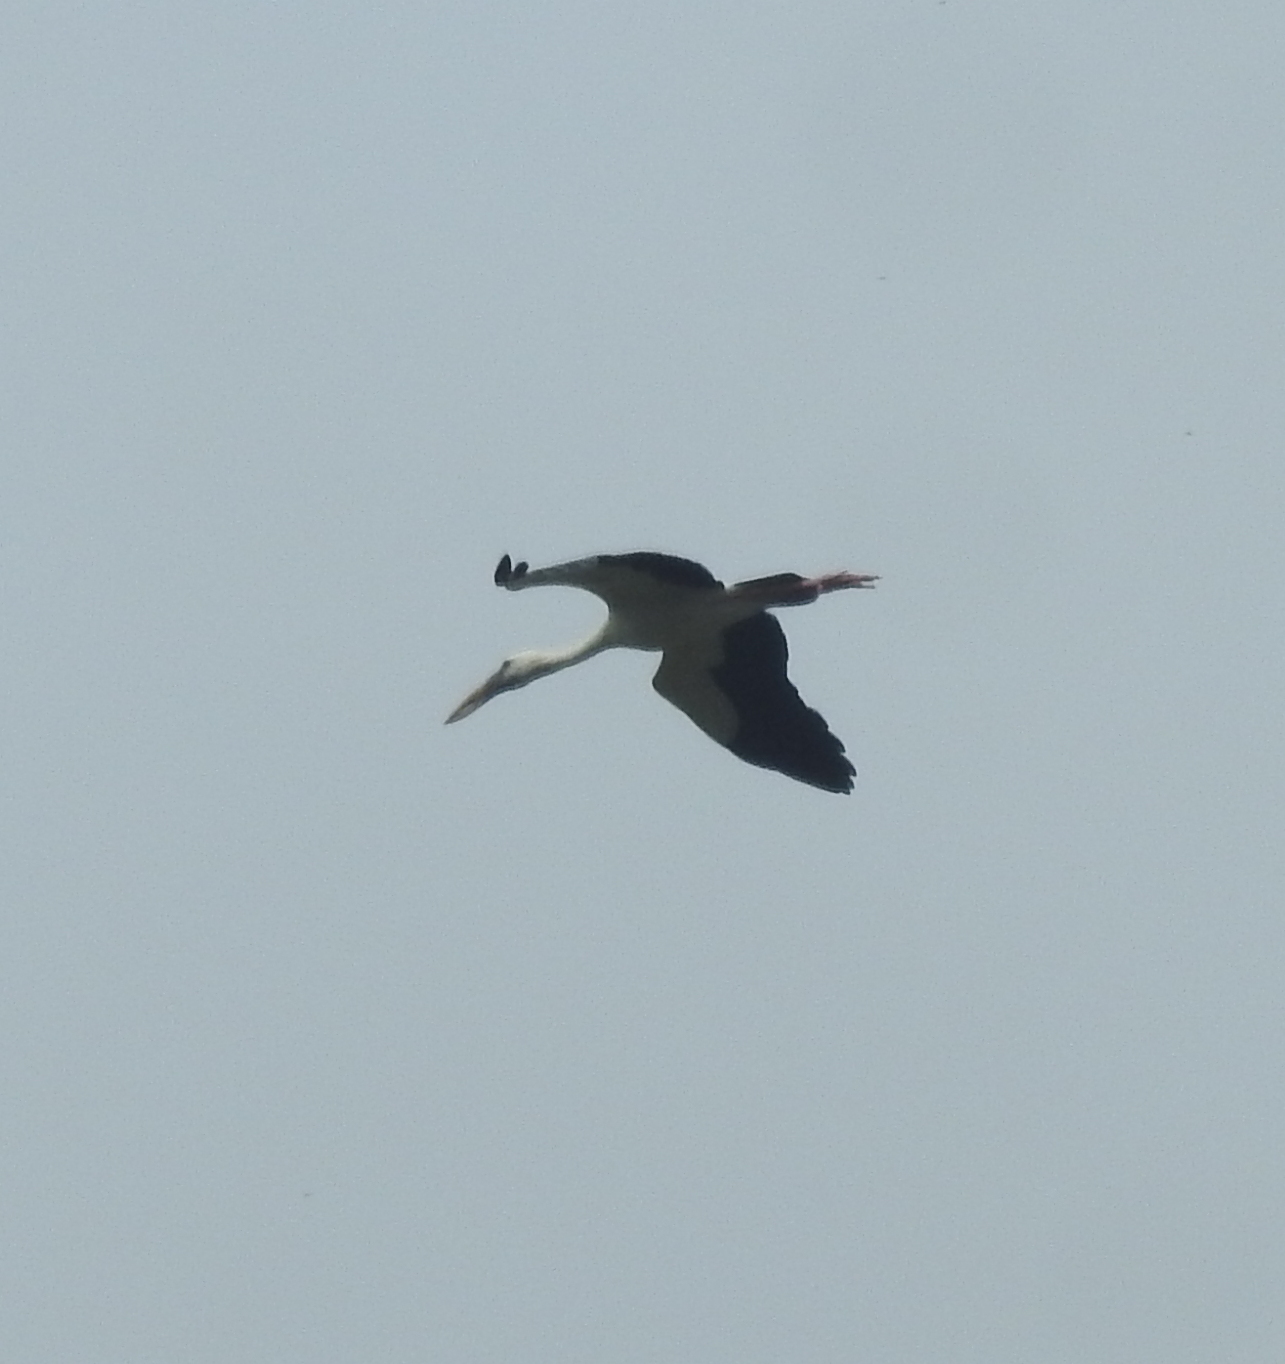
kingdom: Animalia
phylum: Chordata
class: Aves
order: Ciconiiformes
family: Ciconiidae
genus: Anastomus
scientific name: Anastomus oscitans
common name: Asian openbill
